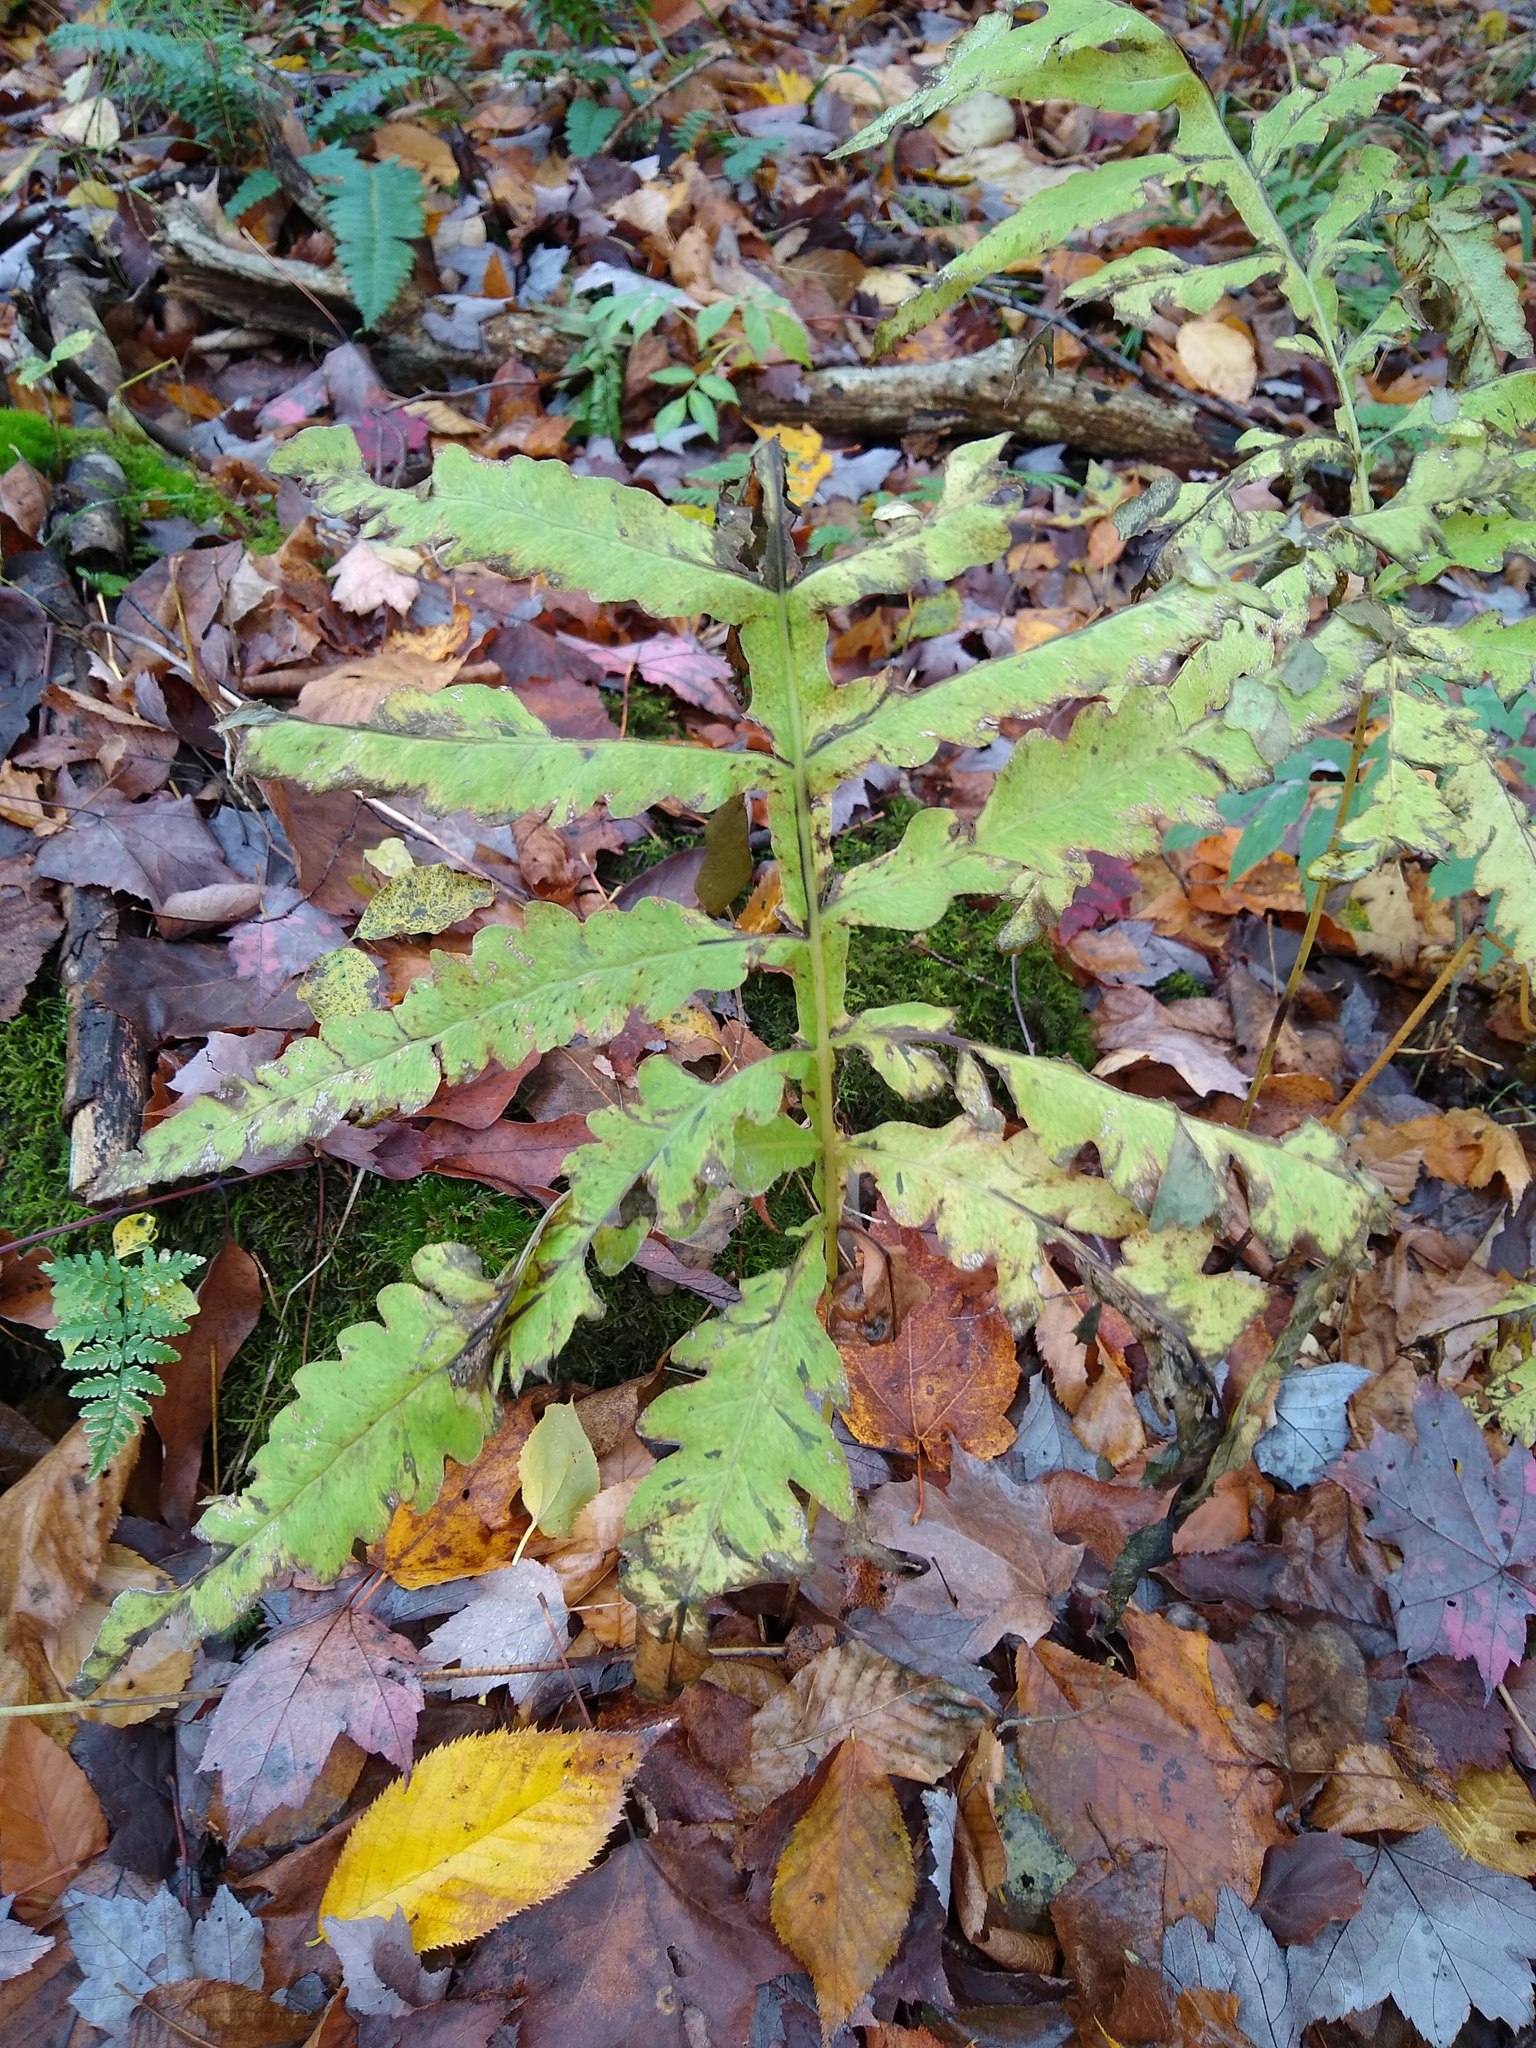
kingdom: Plantae
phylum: Tracheophyta
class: Polypodiopsida
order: Polypodiales
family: Onocleaceae
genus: Onoclea
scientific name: Onoclea sensibilis
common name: Sensitive fern
